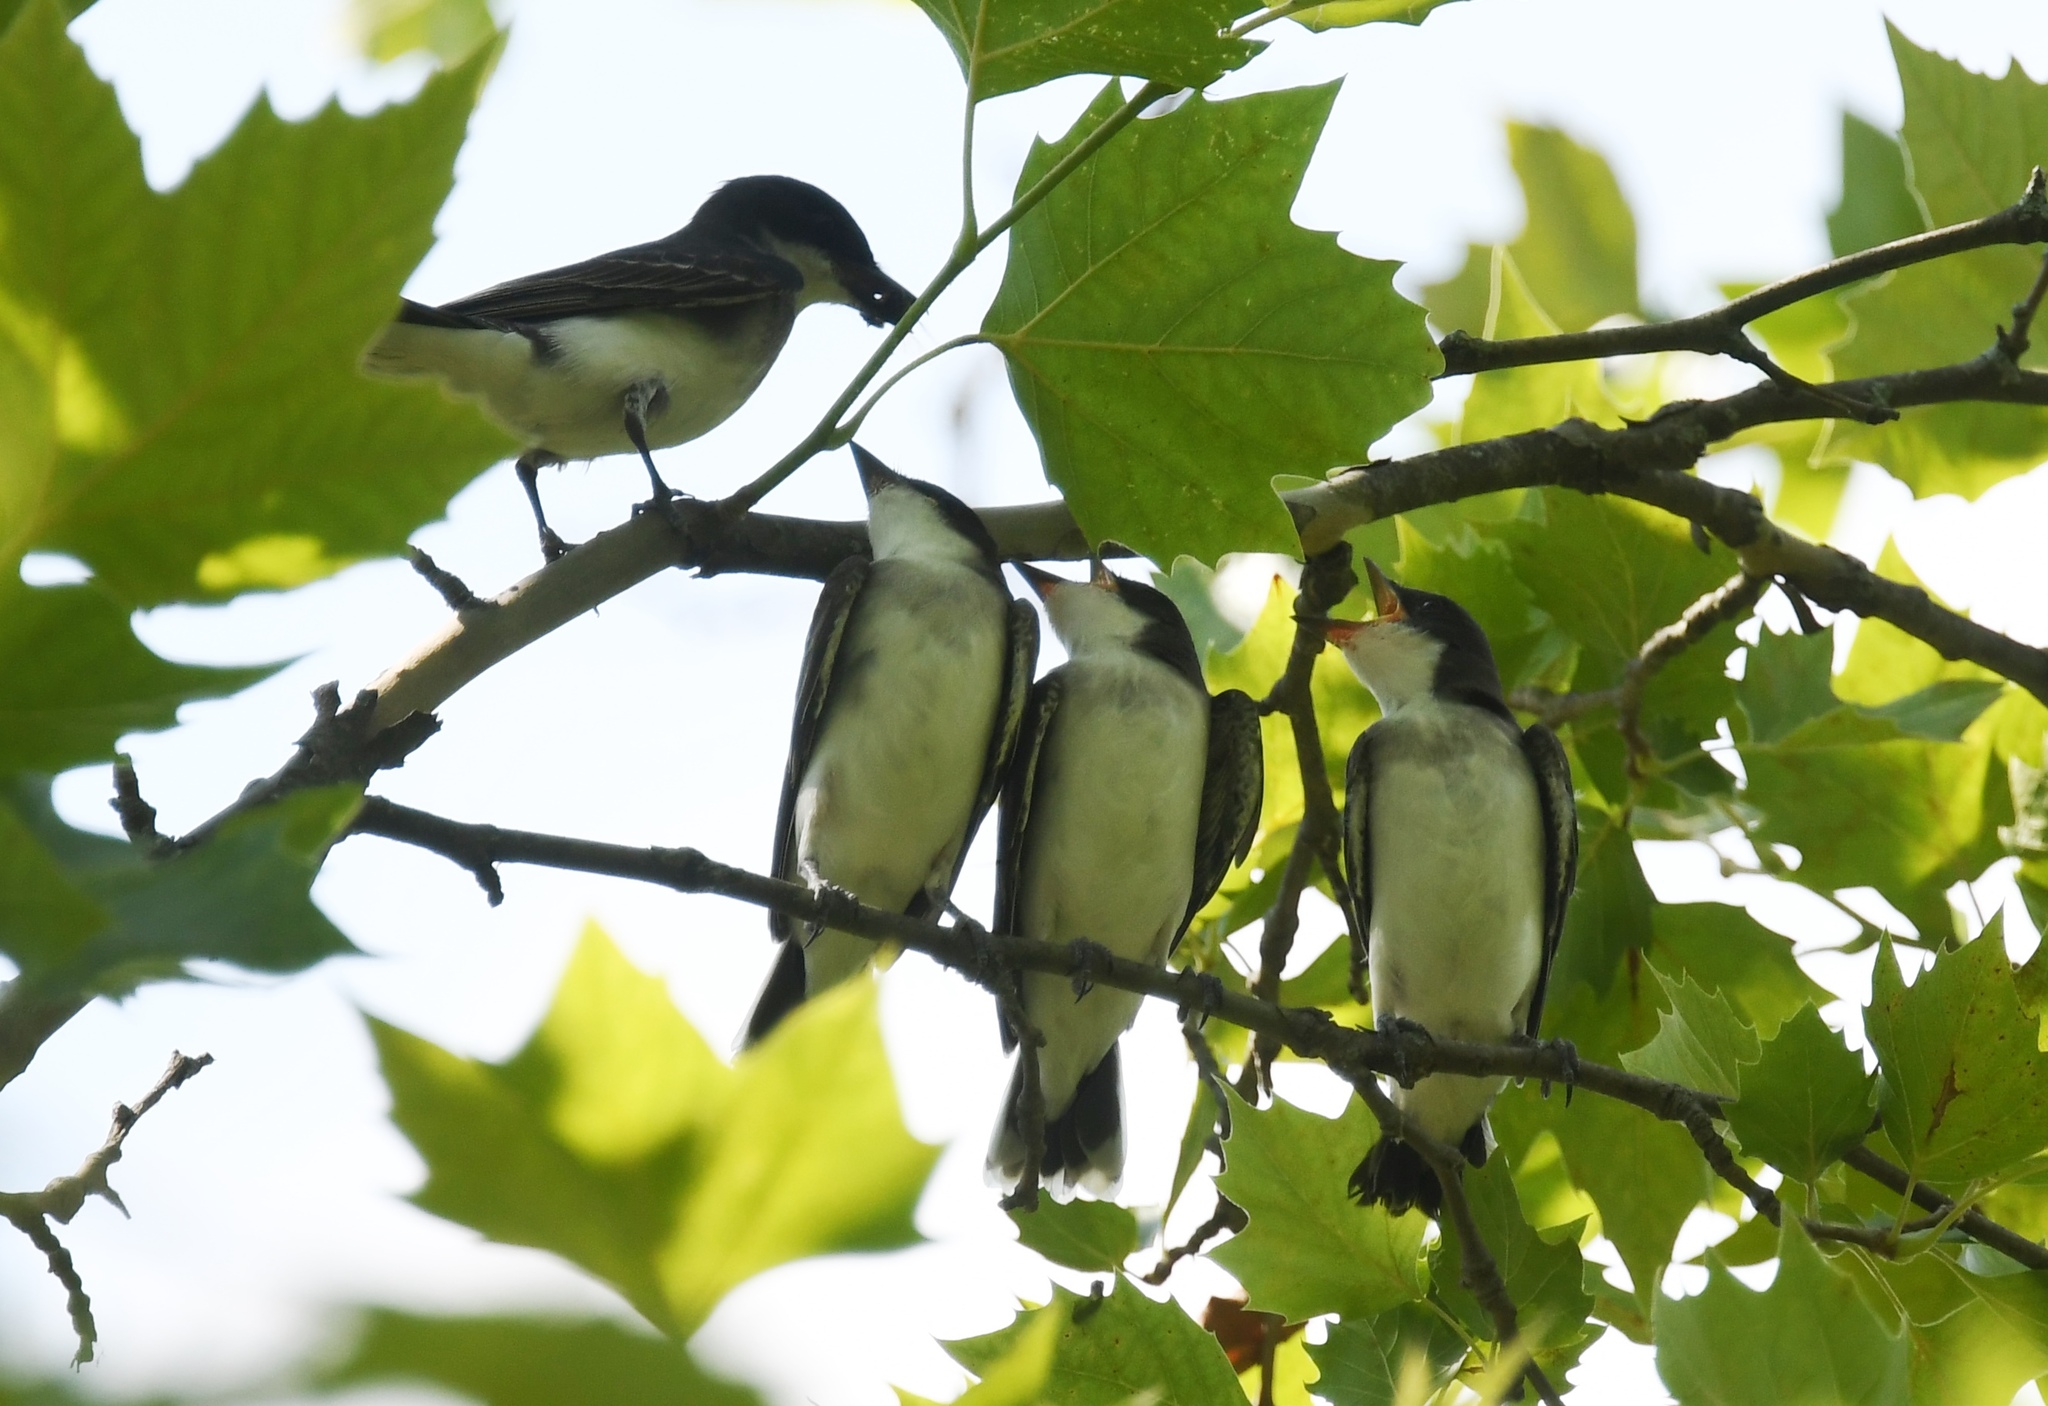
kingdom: Animalia
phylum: Chordata
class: Aves
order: Passeriformes
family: Tyrannidae
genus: Tyrannus
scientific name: Tyrannus tyrannus
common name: Eastern kingbird
